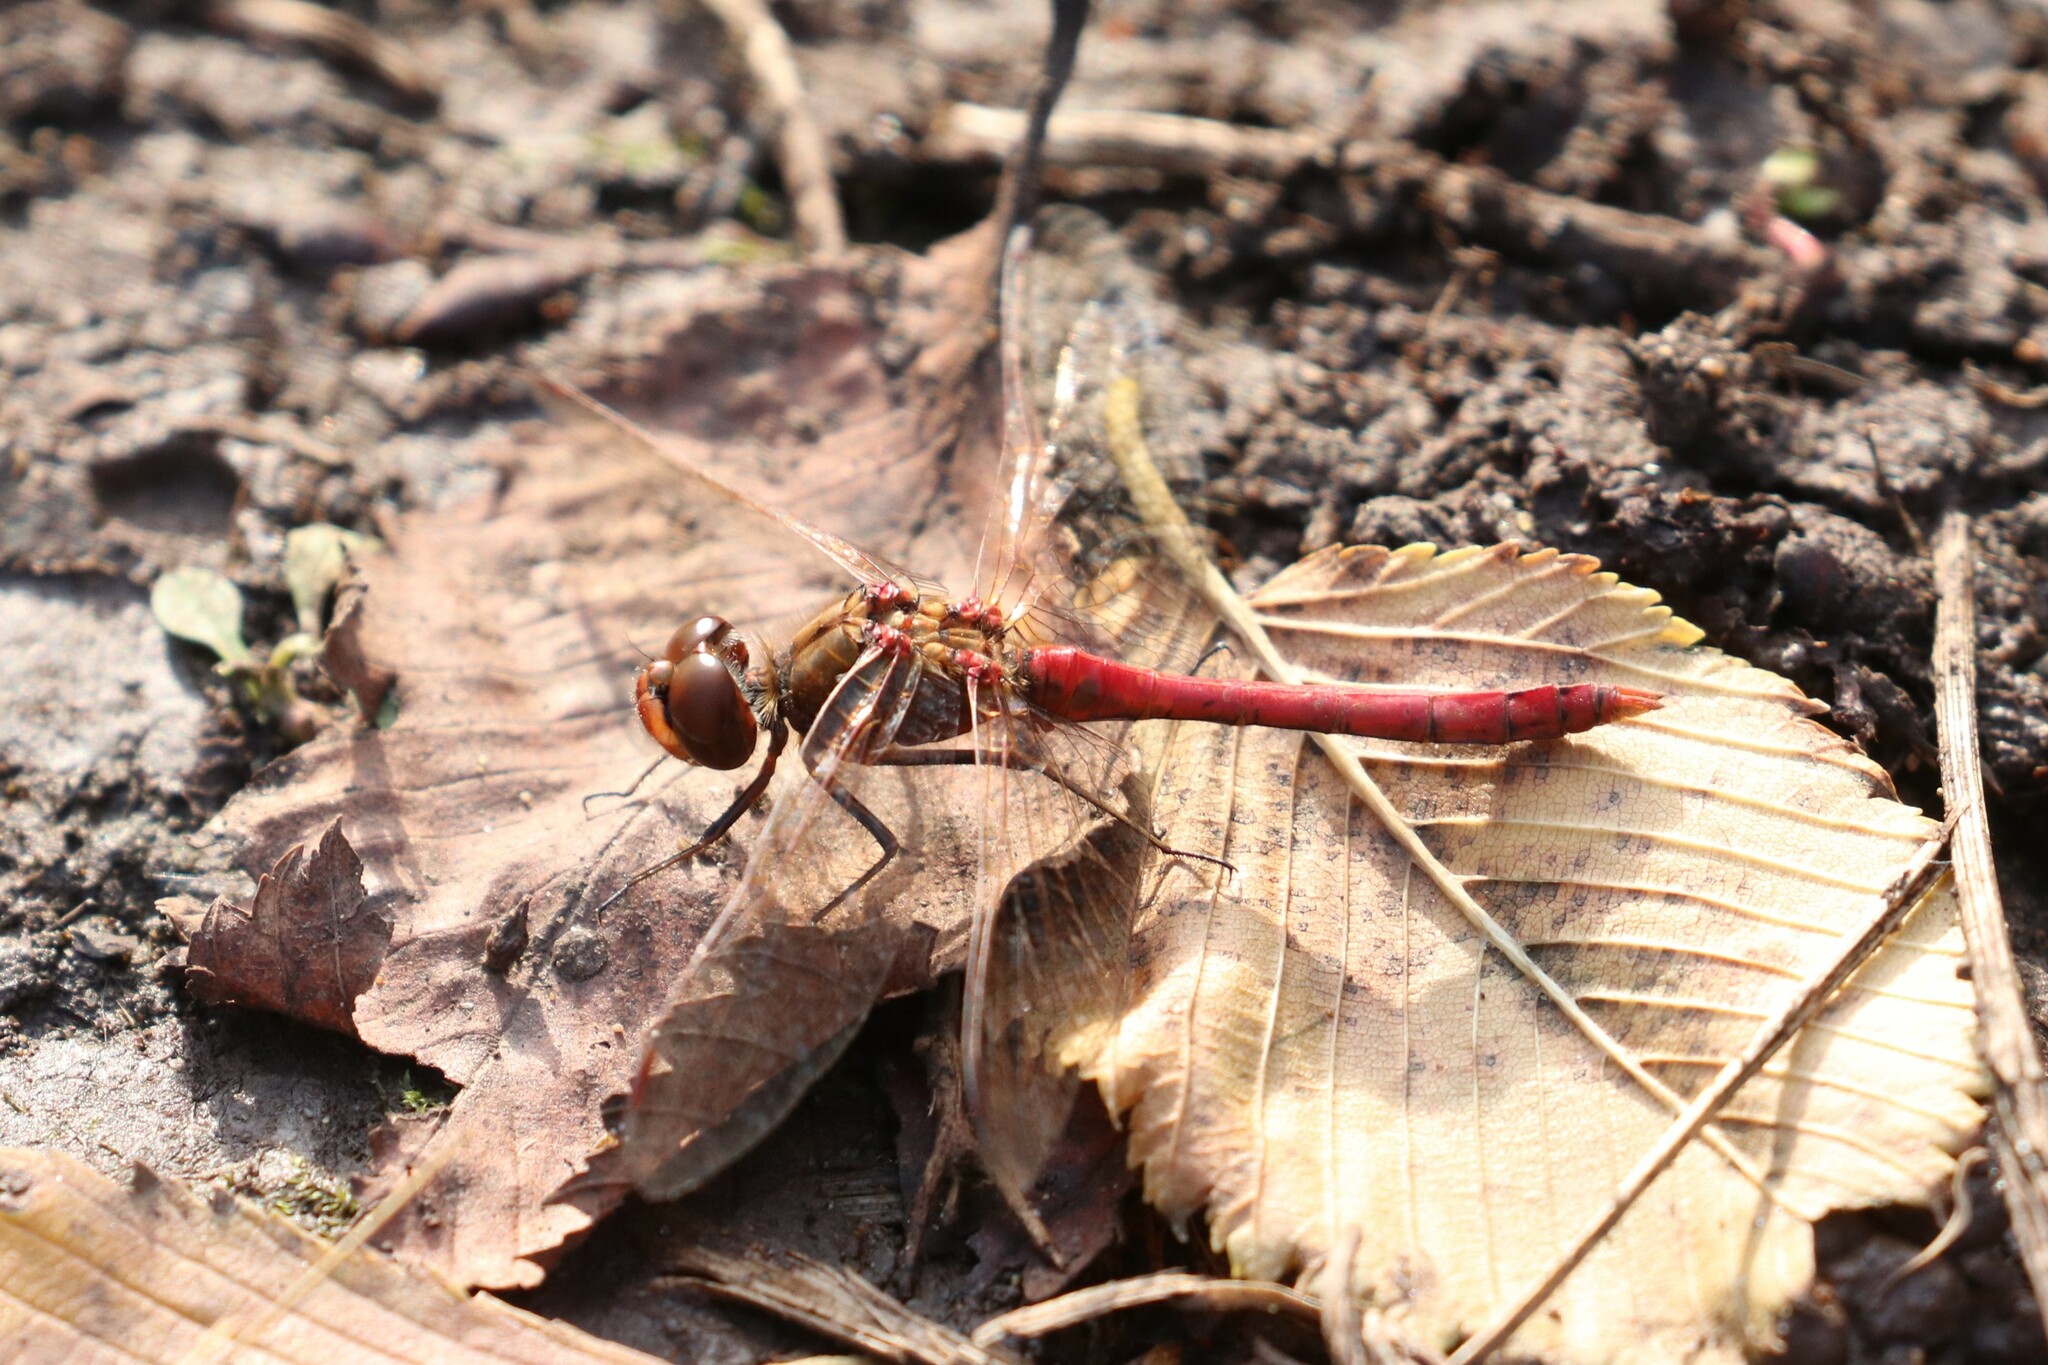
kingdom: Animalia
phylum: Arthropoda
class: Insecta
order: Odonata
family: Libellulidae
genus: Sympetrum
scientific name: Sympetrum vulgatum
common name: Vagrant darter
